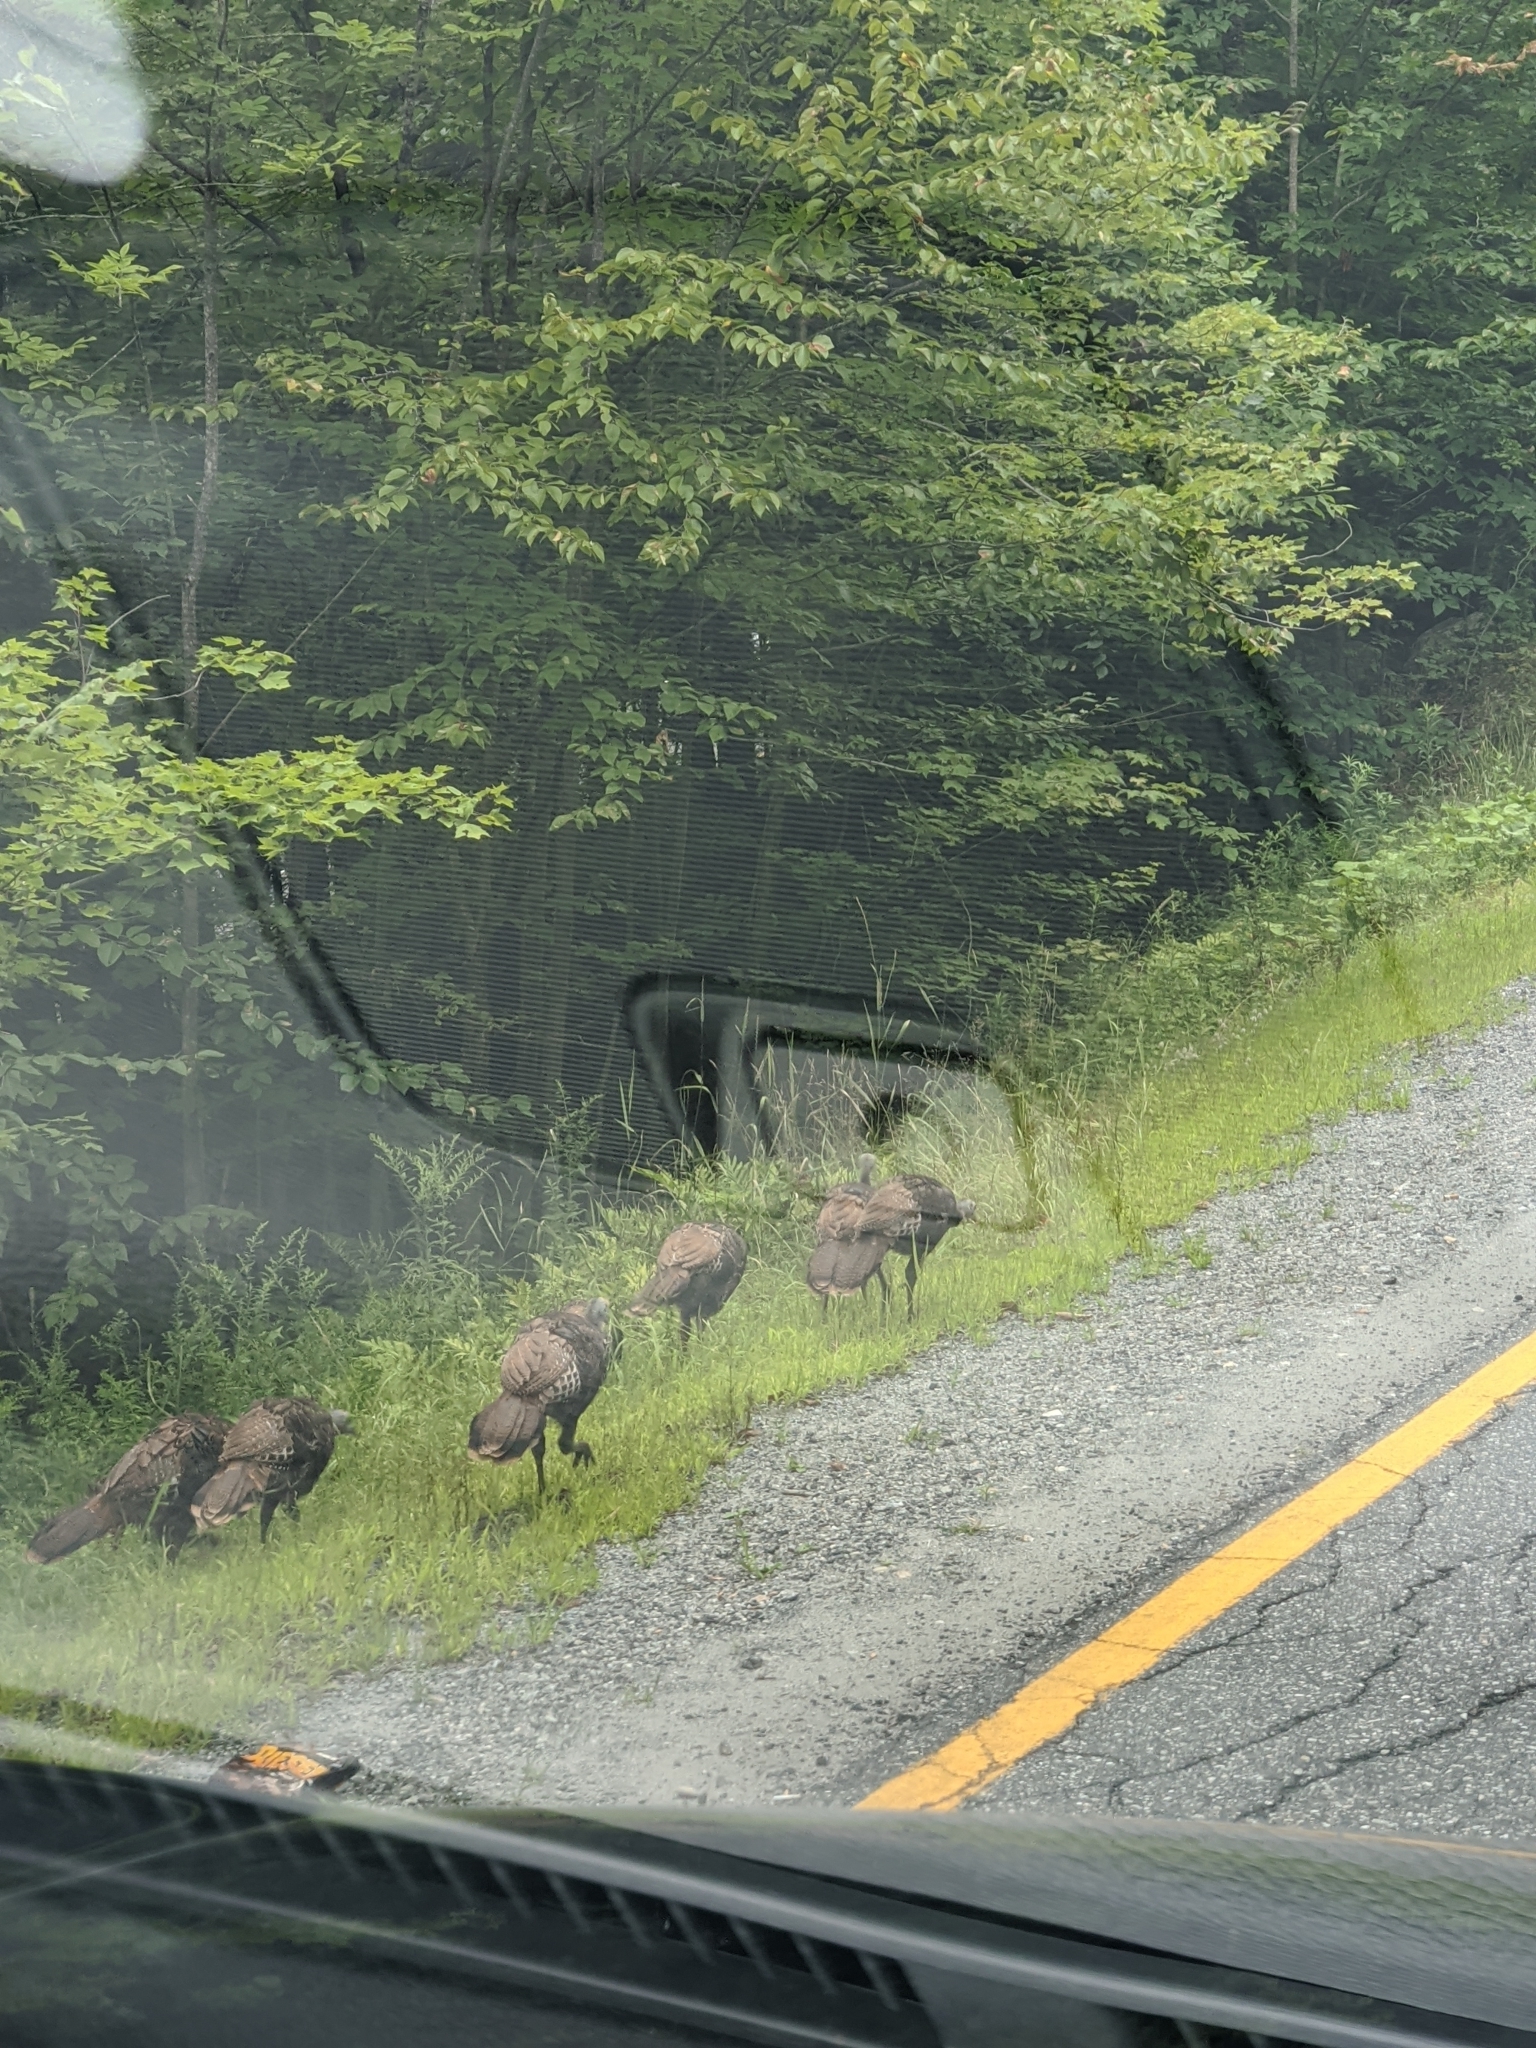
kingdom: Animalia
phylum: Chordata
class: Aves
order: Galliformes
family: Phasianidae
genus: Meleagris
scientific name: Meleagris gallopavo
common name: Wild turkey
